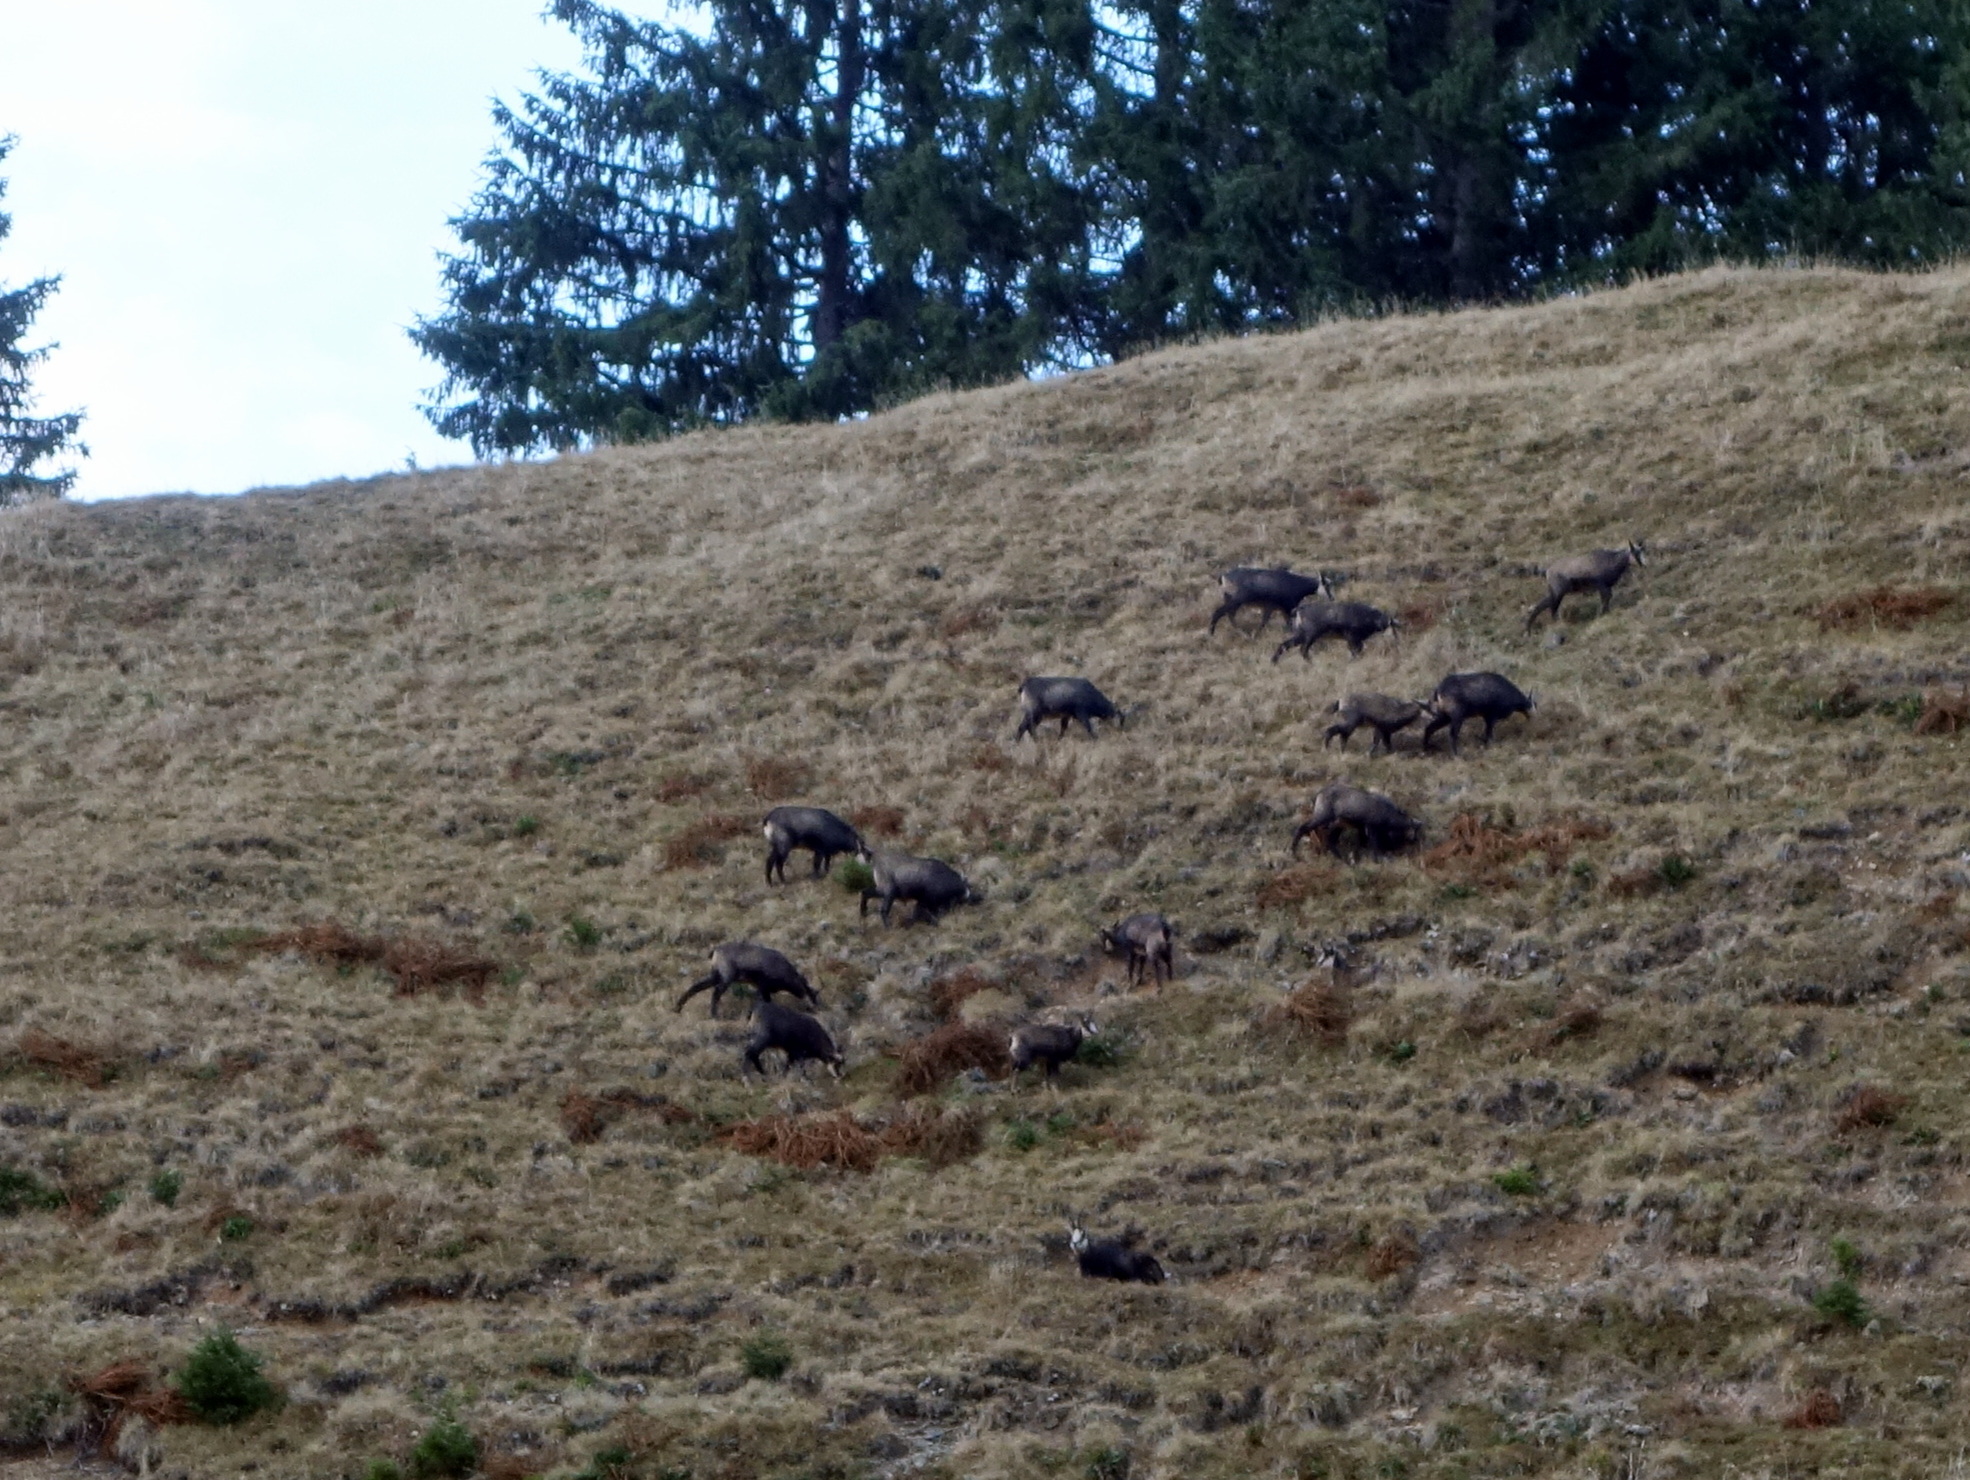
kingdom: Animalia
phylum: Chordata
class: Mammalia
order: Artiodactyla
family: Bovidae
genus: Rupicapra
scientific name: Rupicapra rupicapra
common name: Chamois
